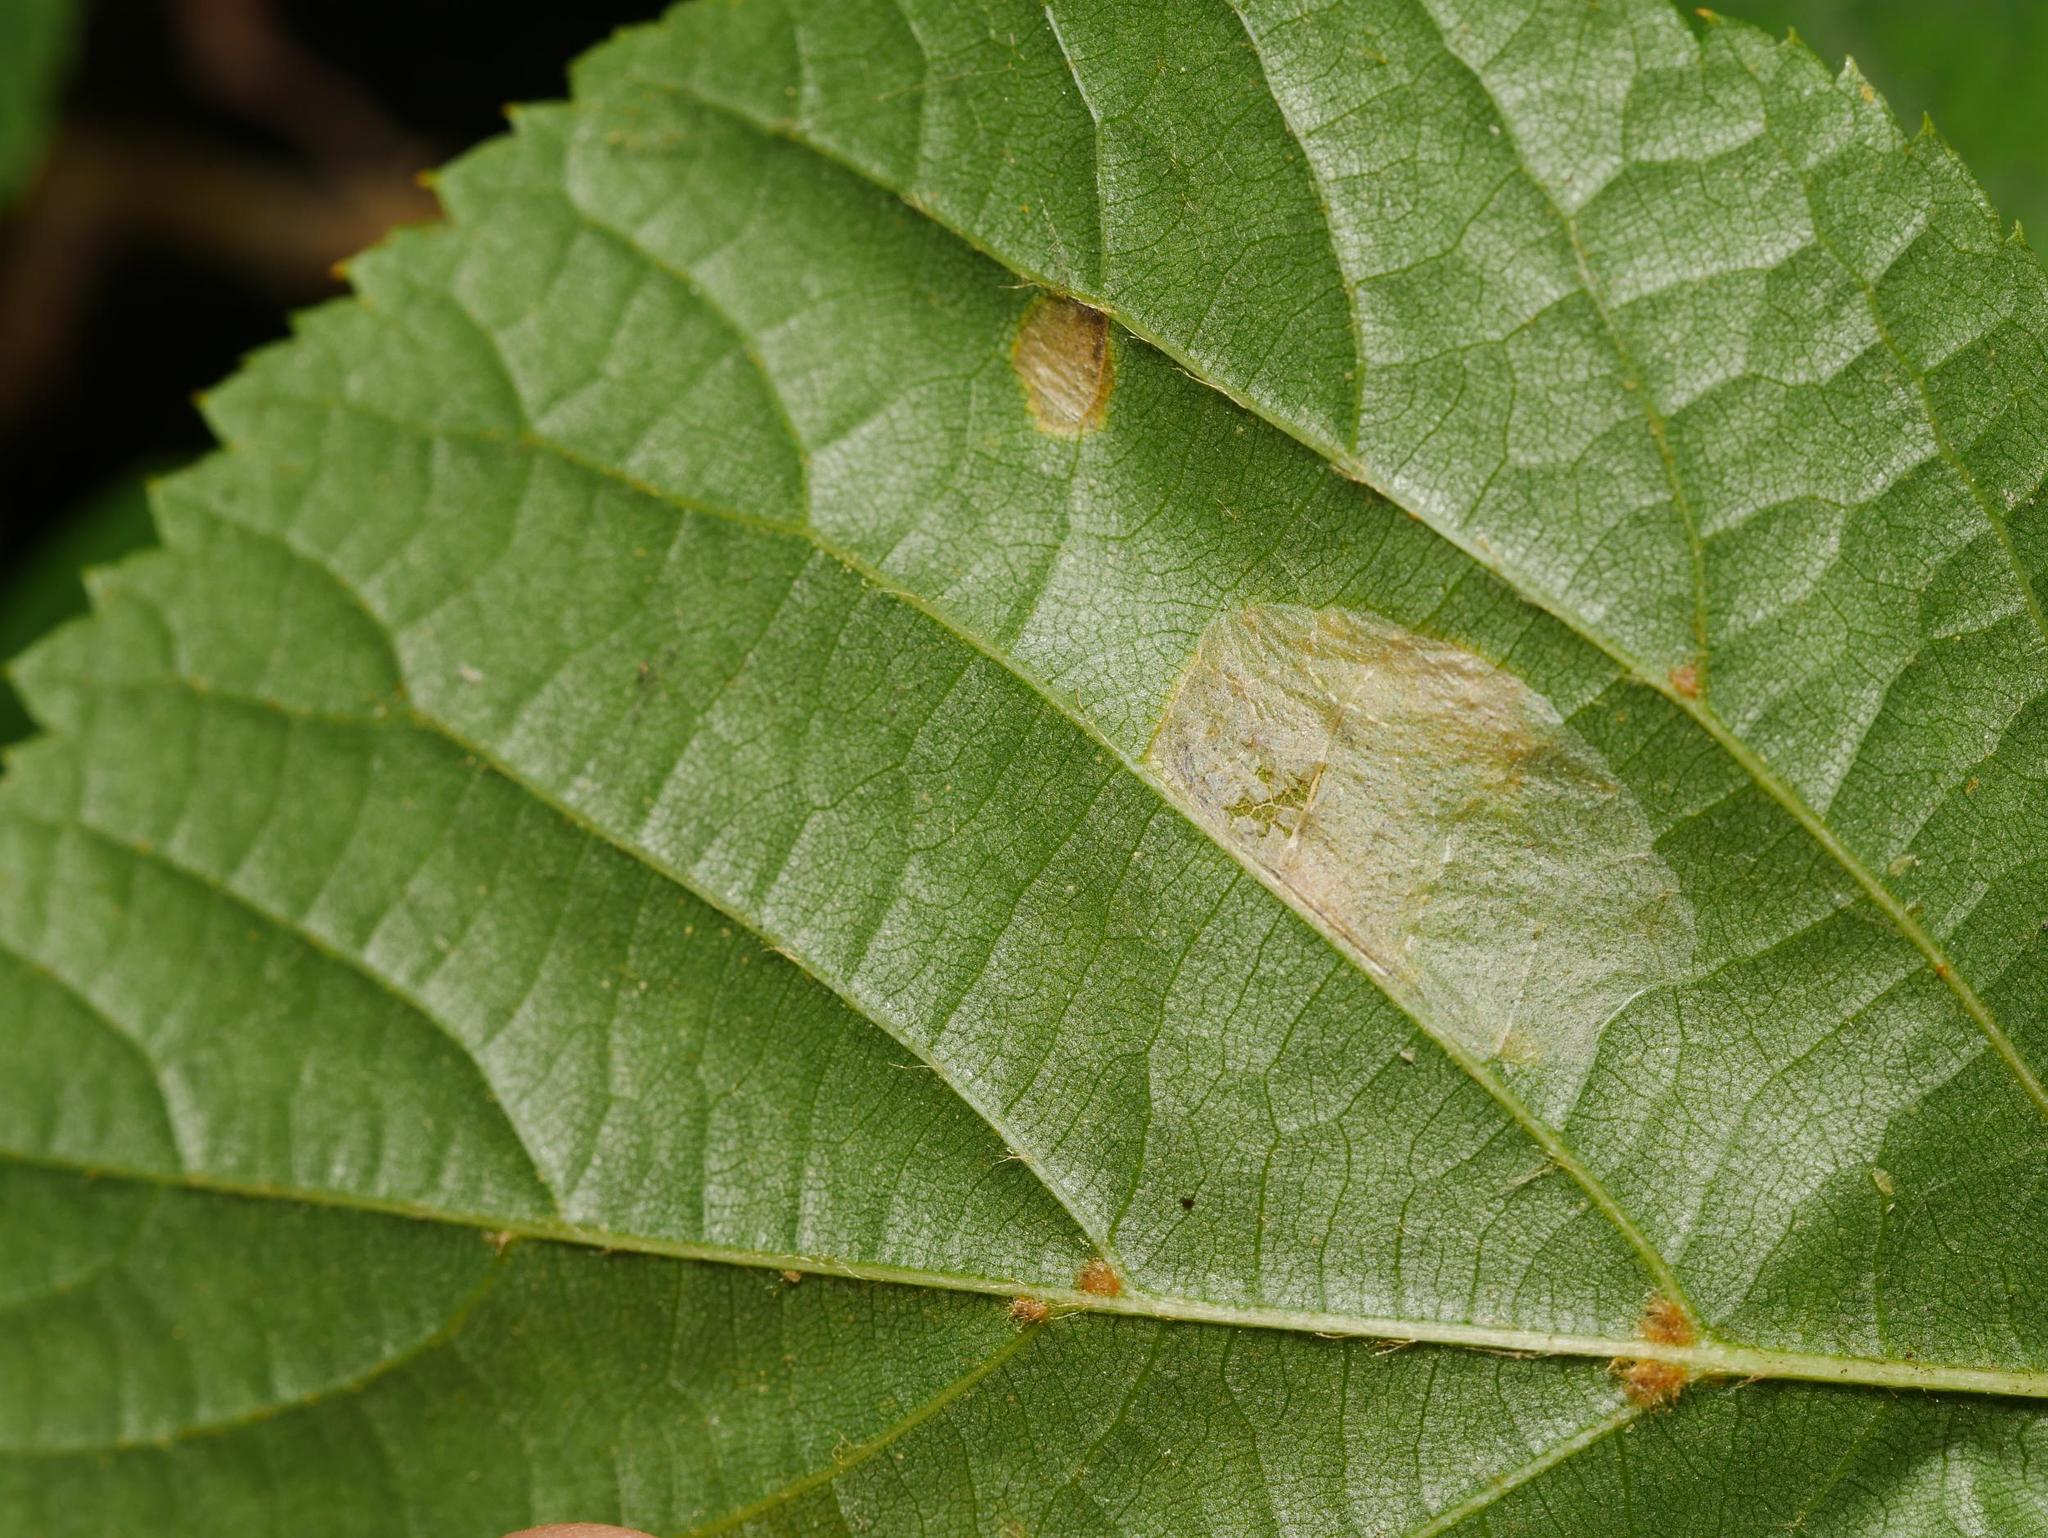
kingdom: Animalia
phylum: Arthropoda
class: Insecta
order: Lepidoptera
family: Gracillariidae
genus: Phyllonorycter
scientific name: Phyllonorycter issikii
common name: Linden midget
